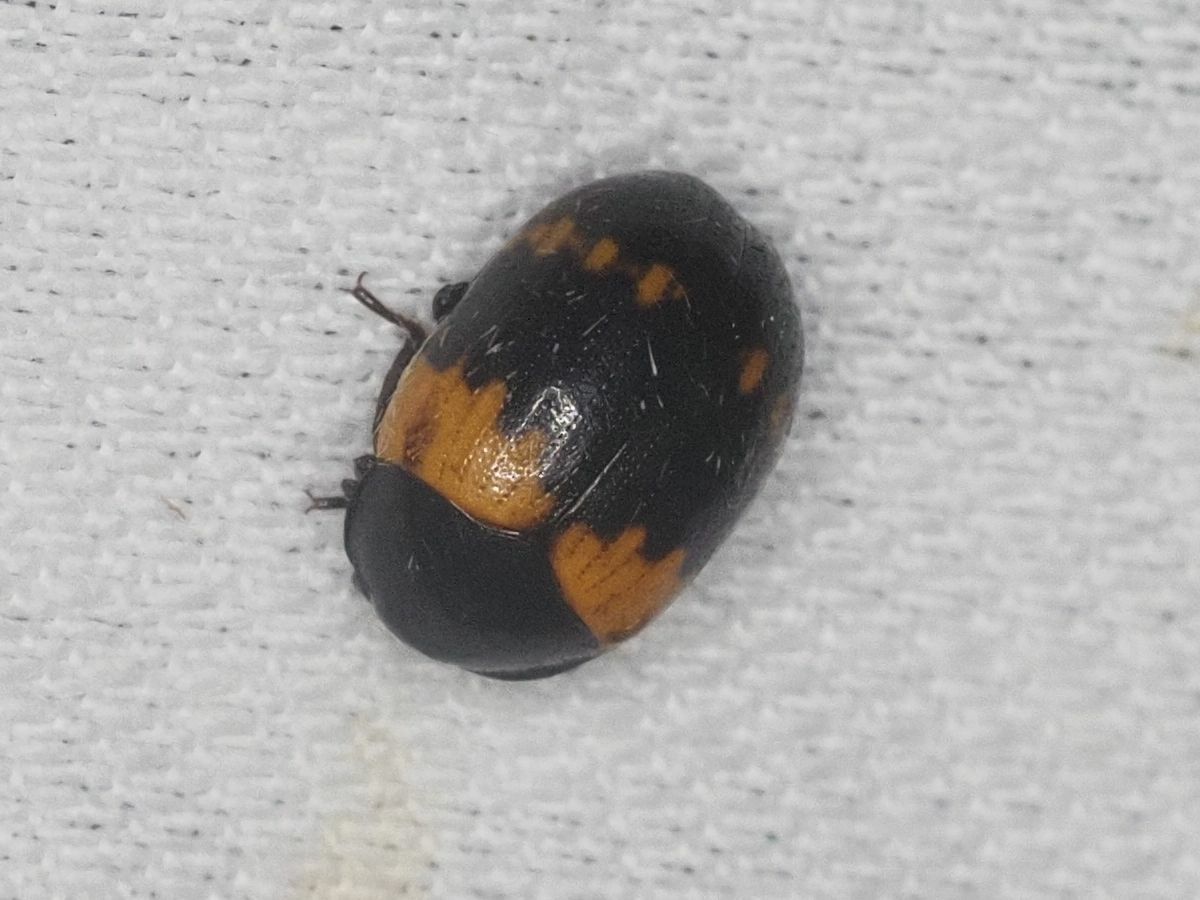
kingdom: Animalia
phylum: Arthropoda
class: Insecta
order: Coleoptera
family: Tenebrionidae
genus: Diaperis
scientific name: Diaperis boleti
